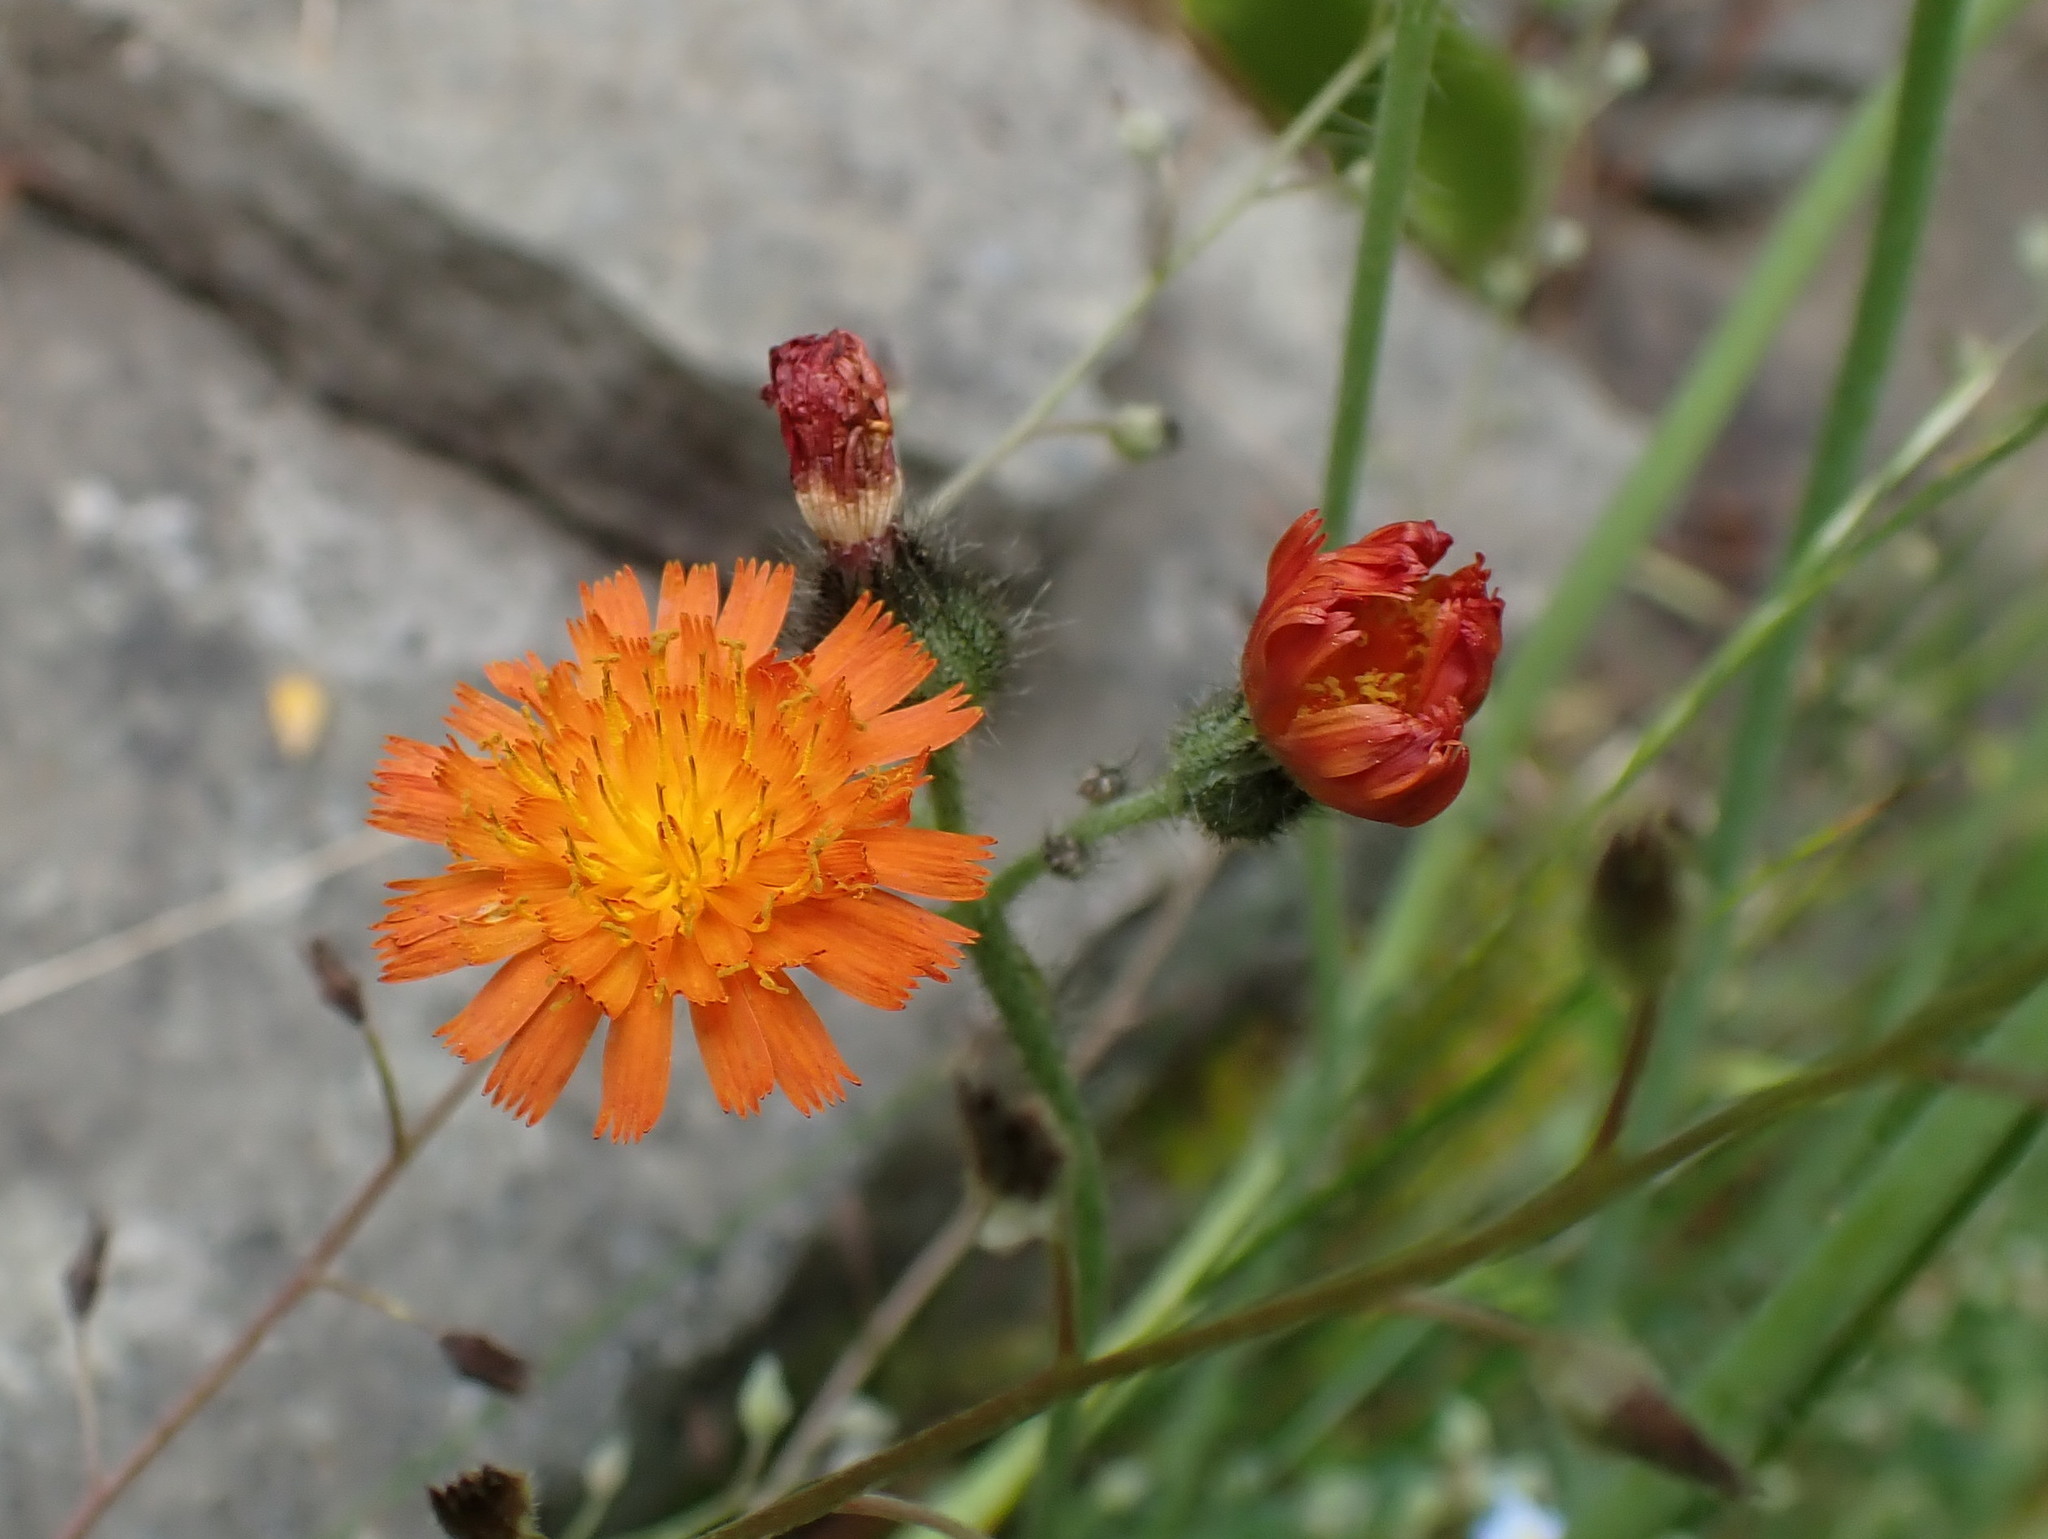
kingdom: Plantae
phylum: Tracheophyta
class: Magnoliopsida
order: Asterales
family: Asteraceae
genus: Pilosella
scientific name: Pilosella aurantiaca
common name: Fox-and-cubs
